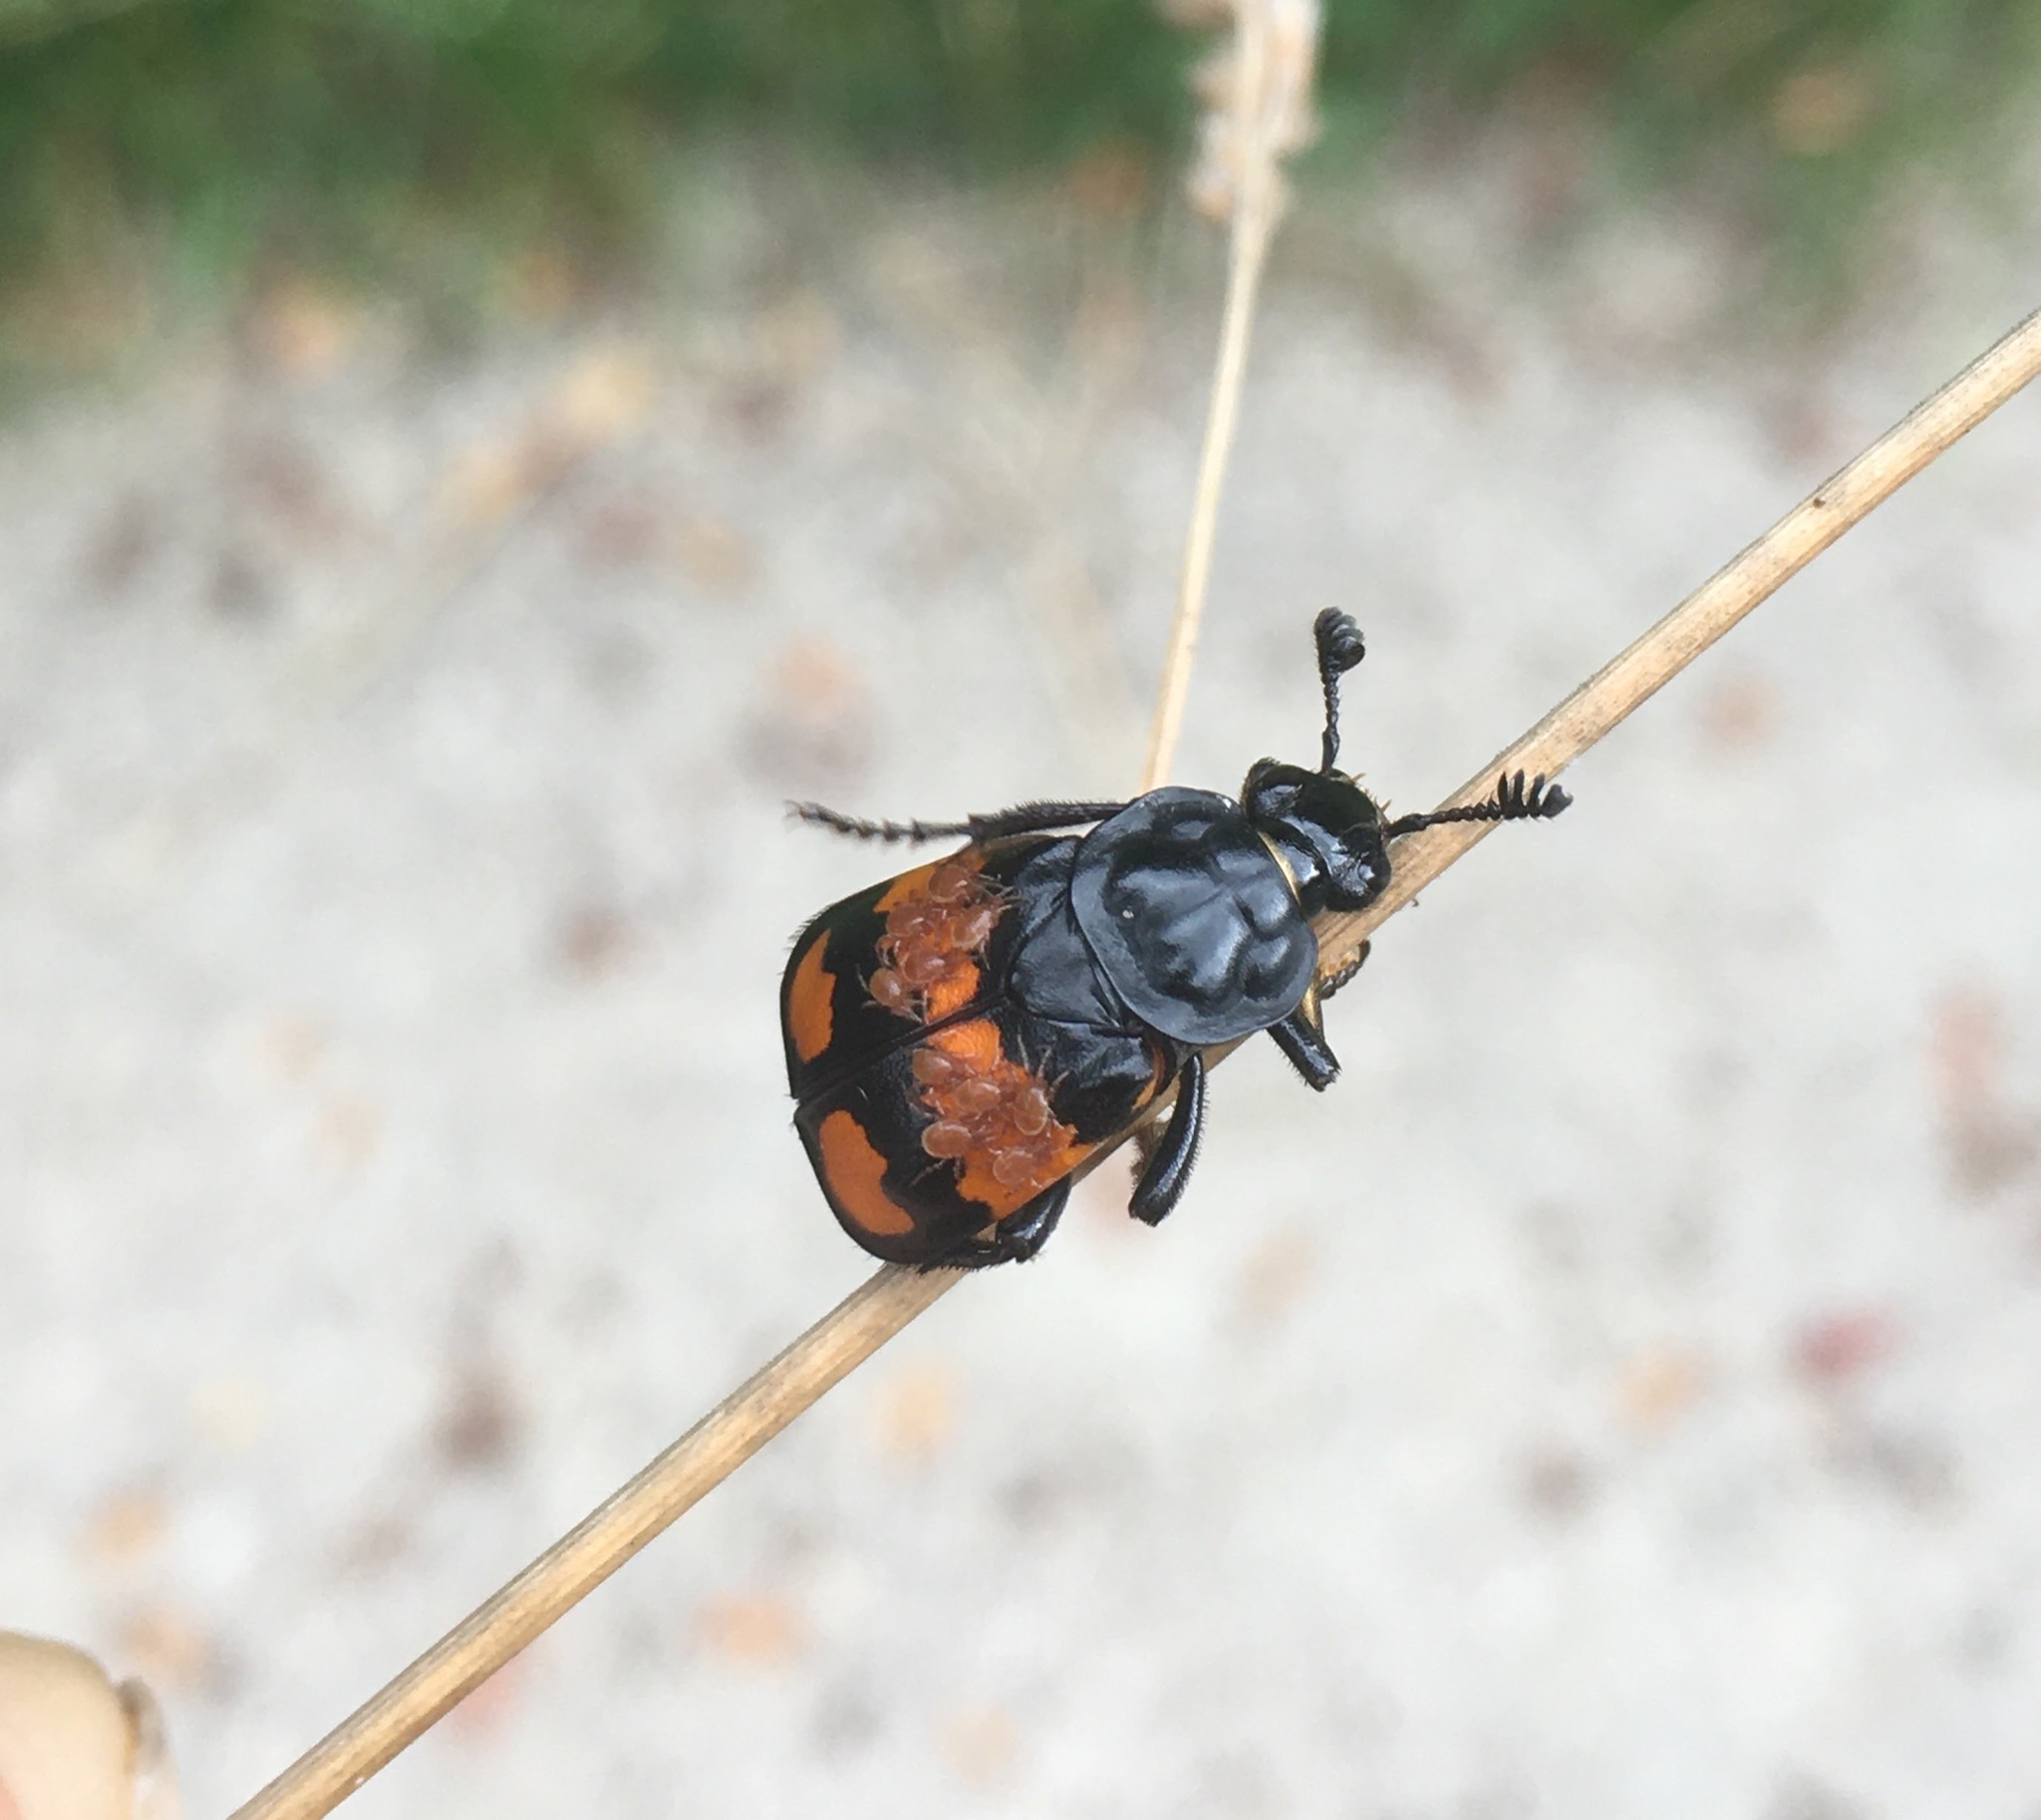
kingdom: Animalia
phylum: Arthropoda
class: Insecta
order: Coleoptera
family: Staphylinidae
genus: Nicrophorus
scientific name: Nicrophorus vespilloides
